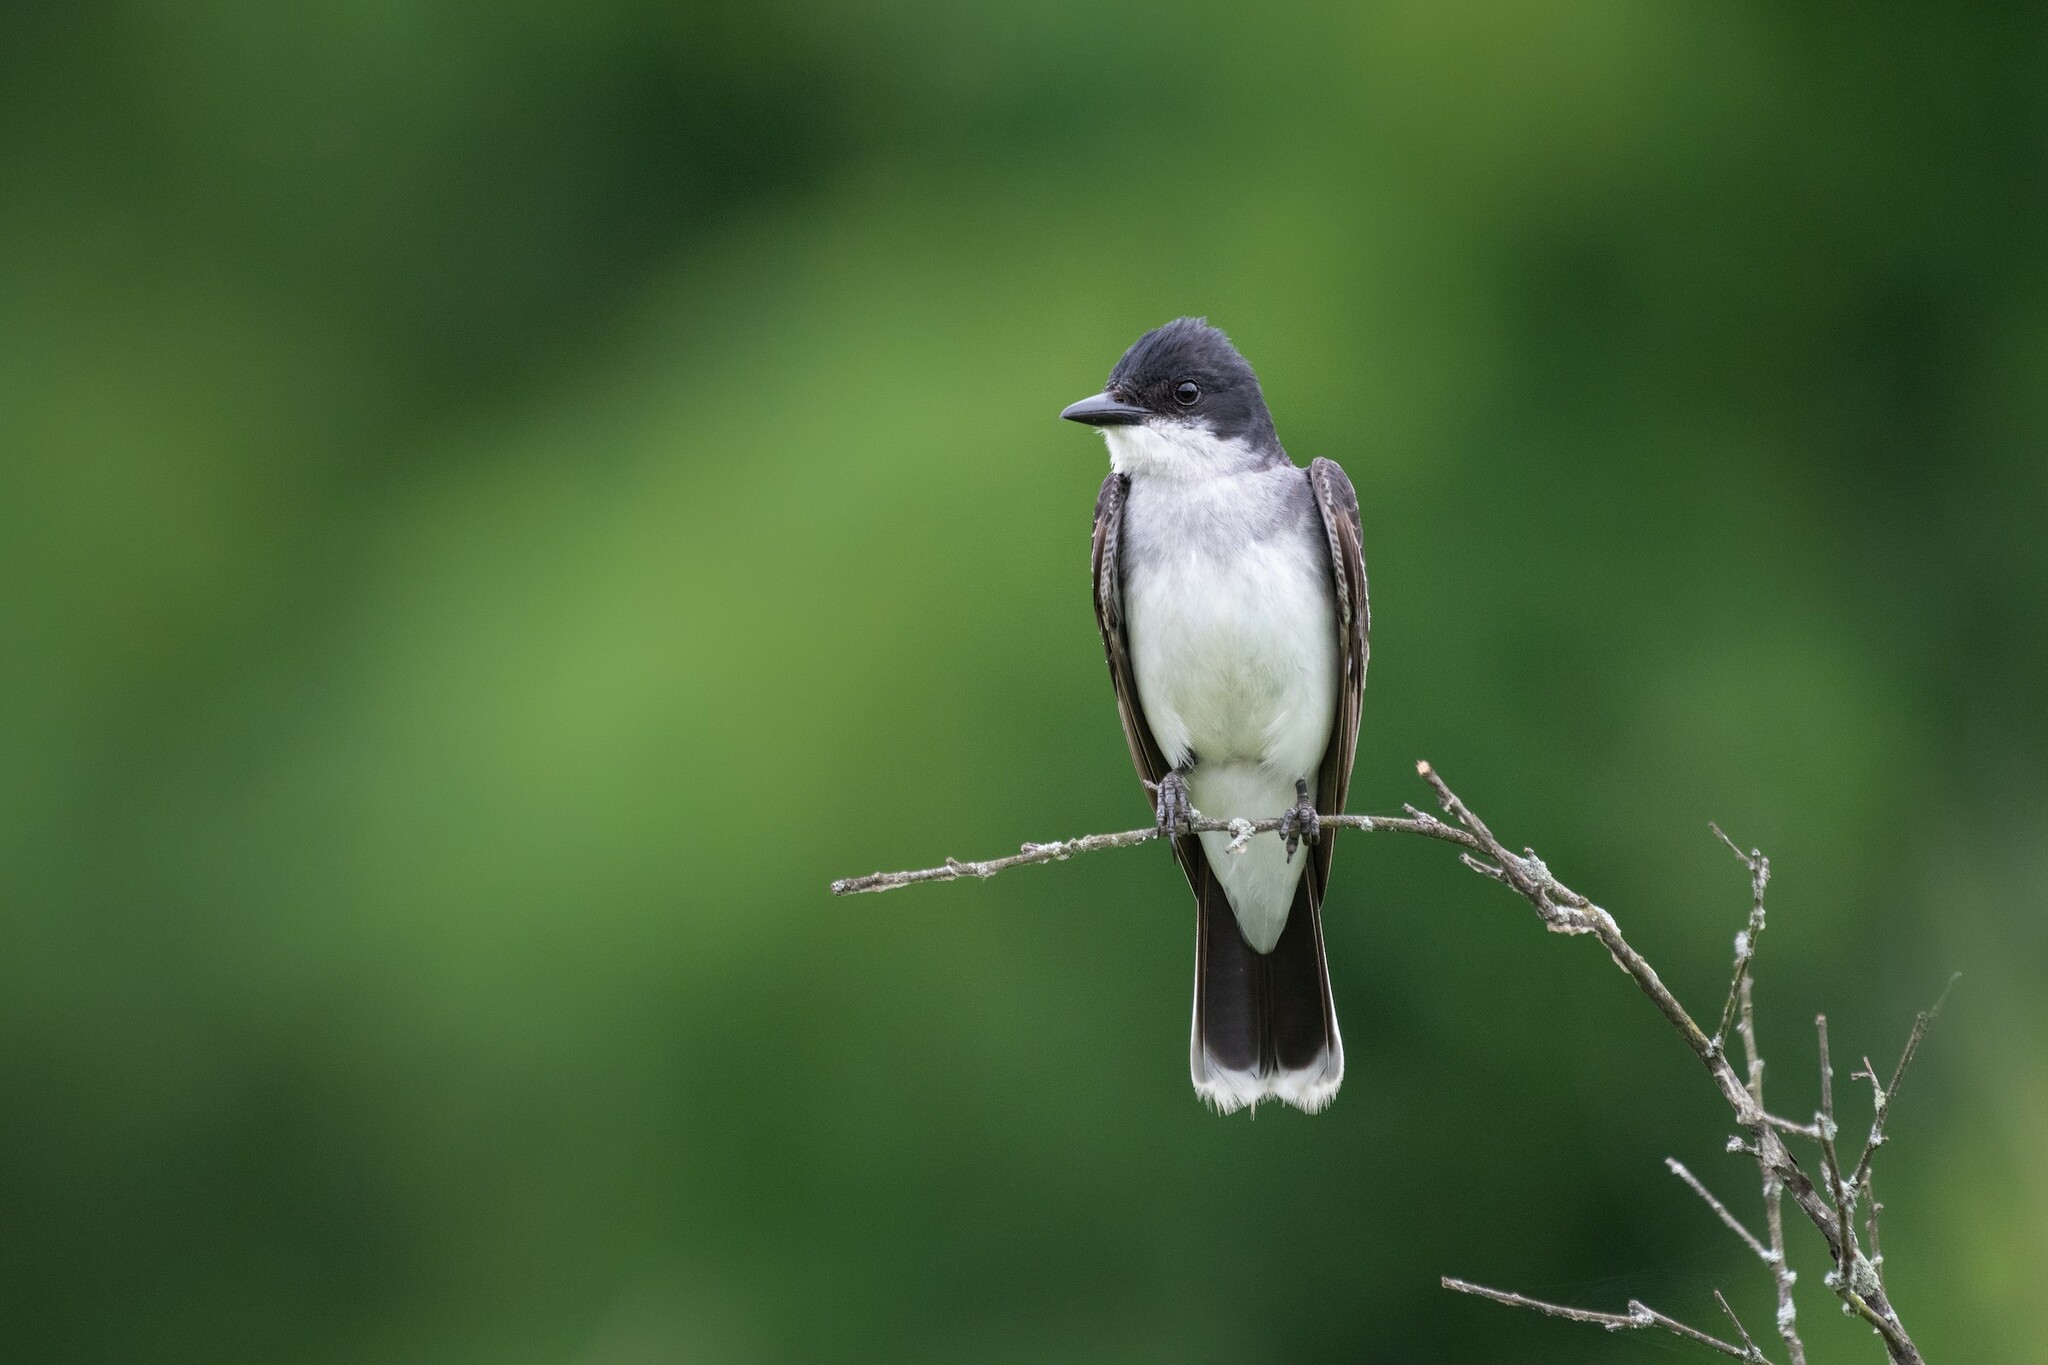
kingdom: Animalia
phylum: Chordata
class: Aves
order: Passeriformes
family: Tyrannidae
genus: Tyrannus
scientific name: Tyrannus tyrannus
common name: Eastern kingbird
